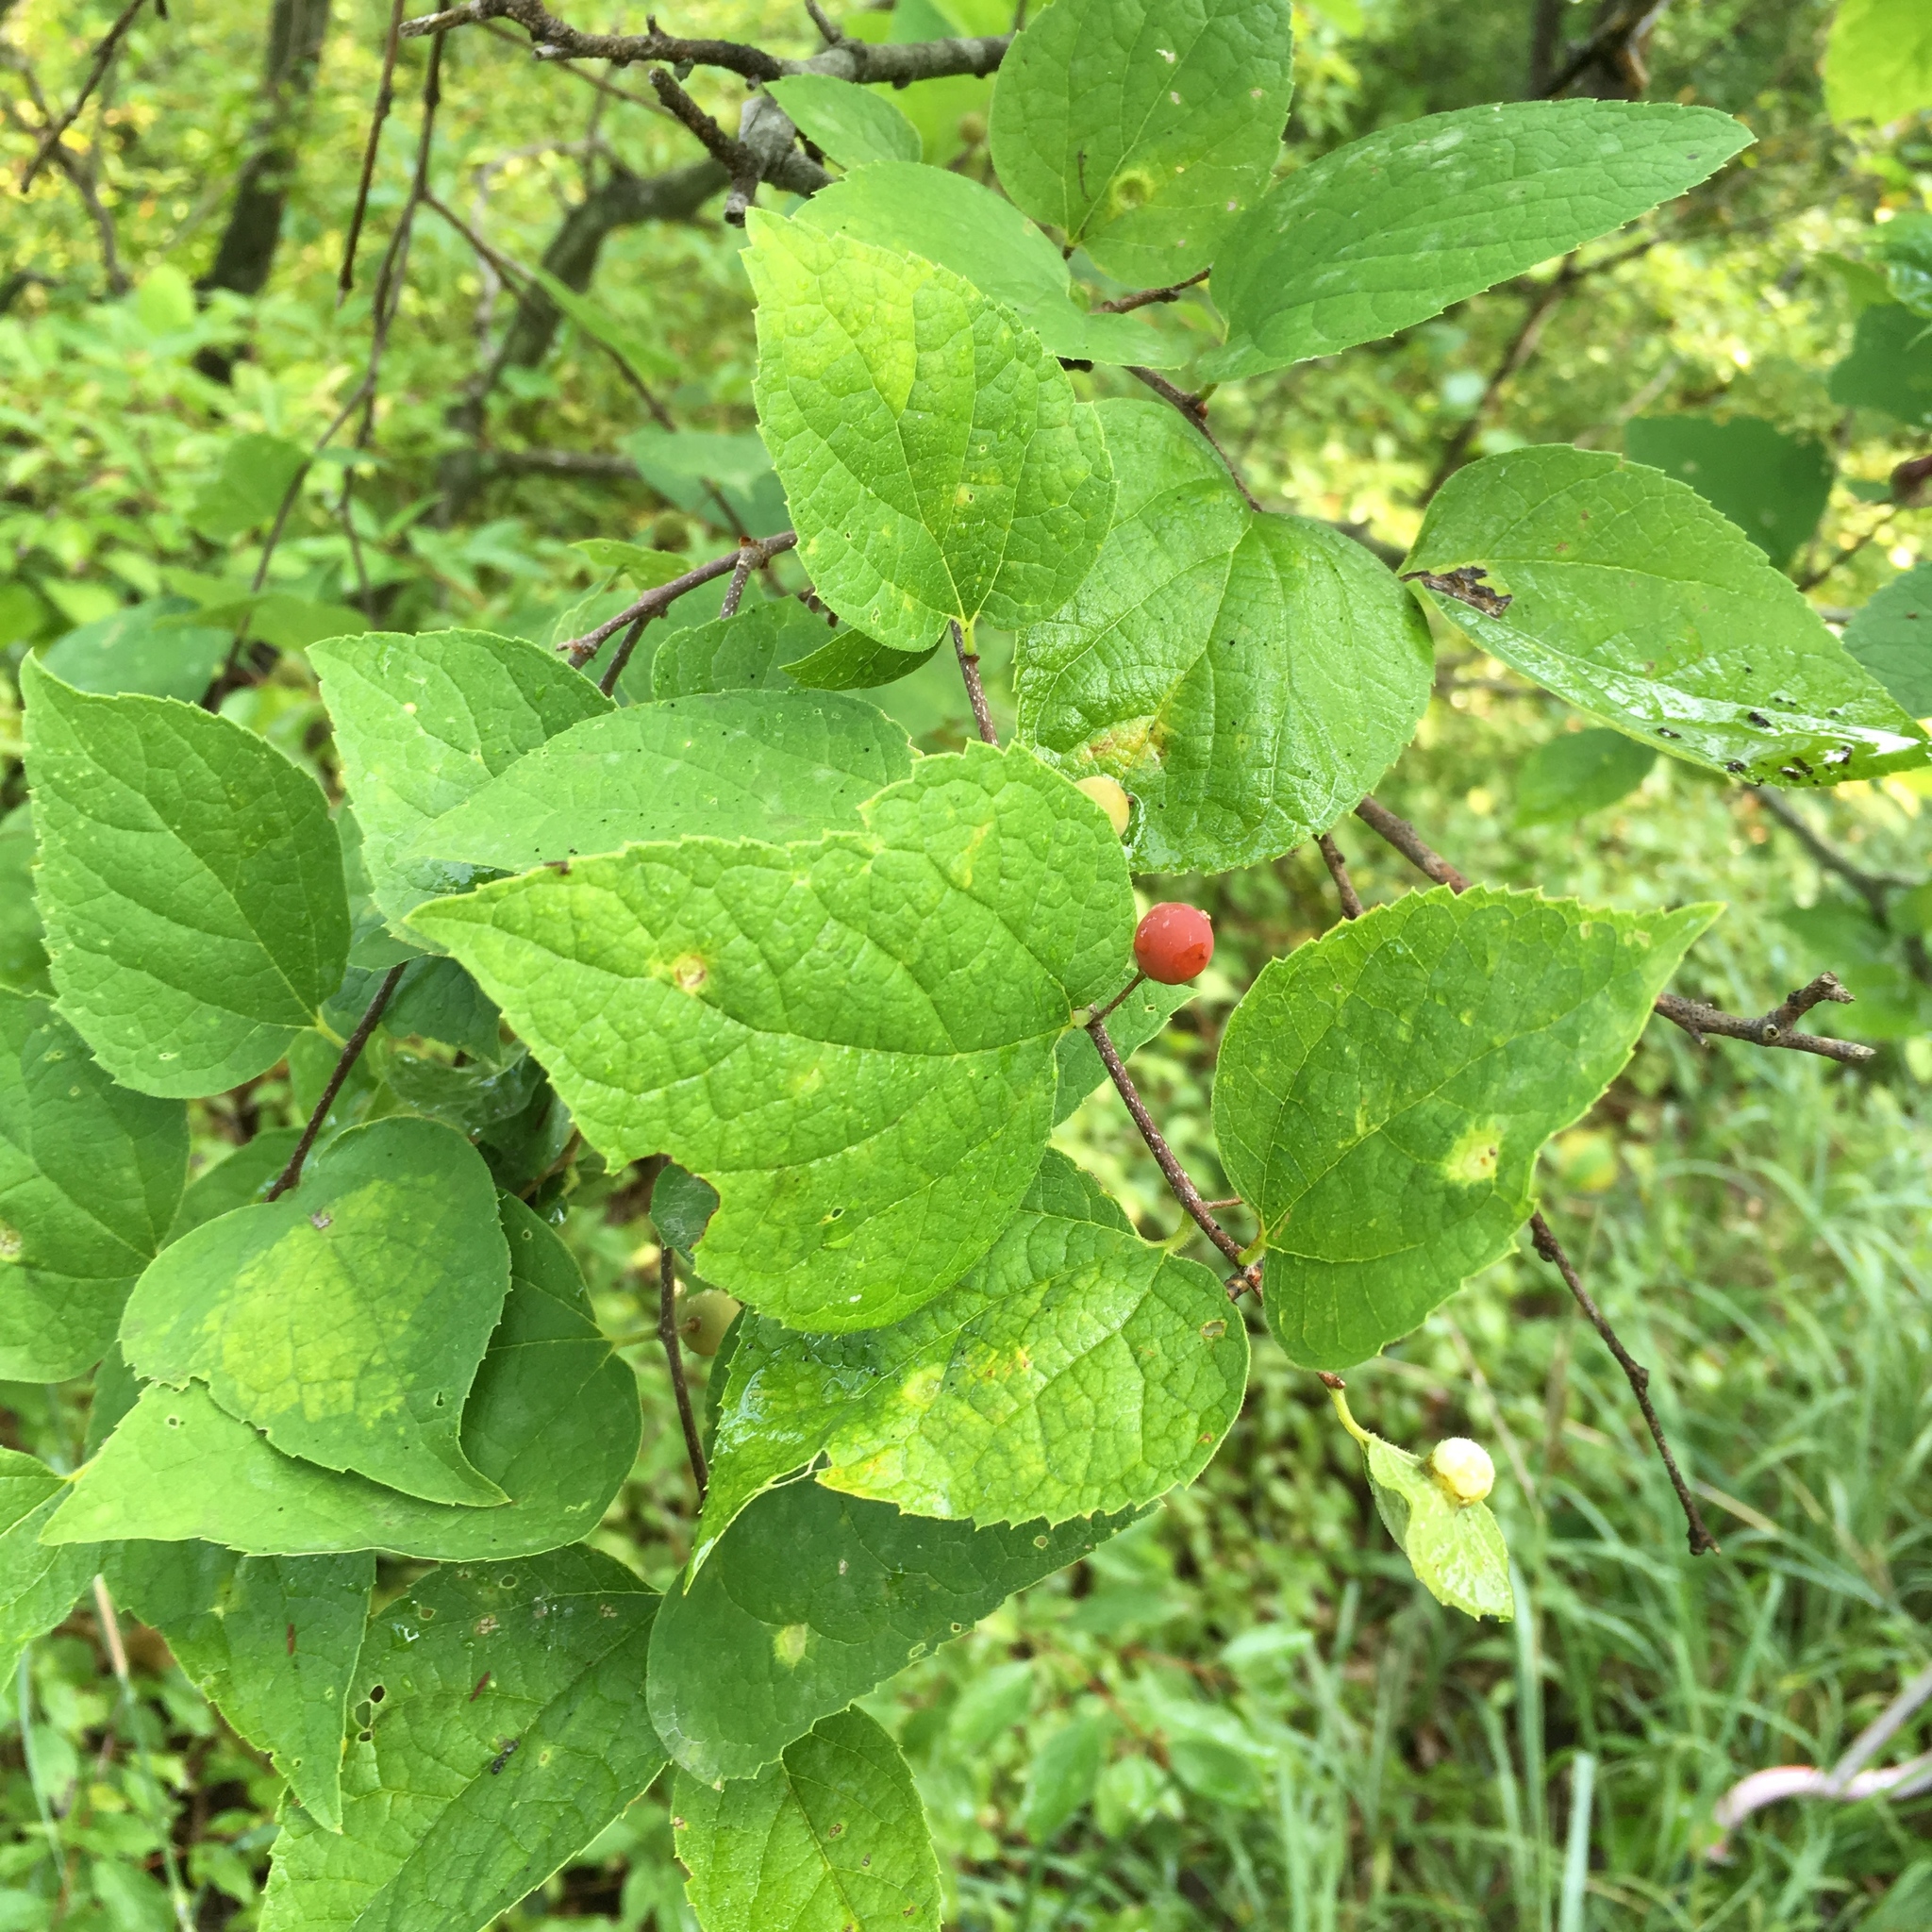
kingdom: Plantae
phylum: Tracheophyta
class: Magnoliopsida
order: Rosales
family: Cannabaceae
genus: Celtis
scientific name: Celtis tenuifolia
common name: Georgia hackberry
